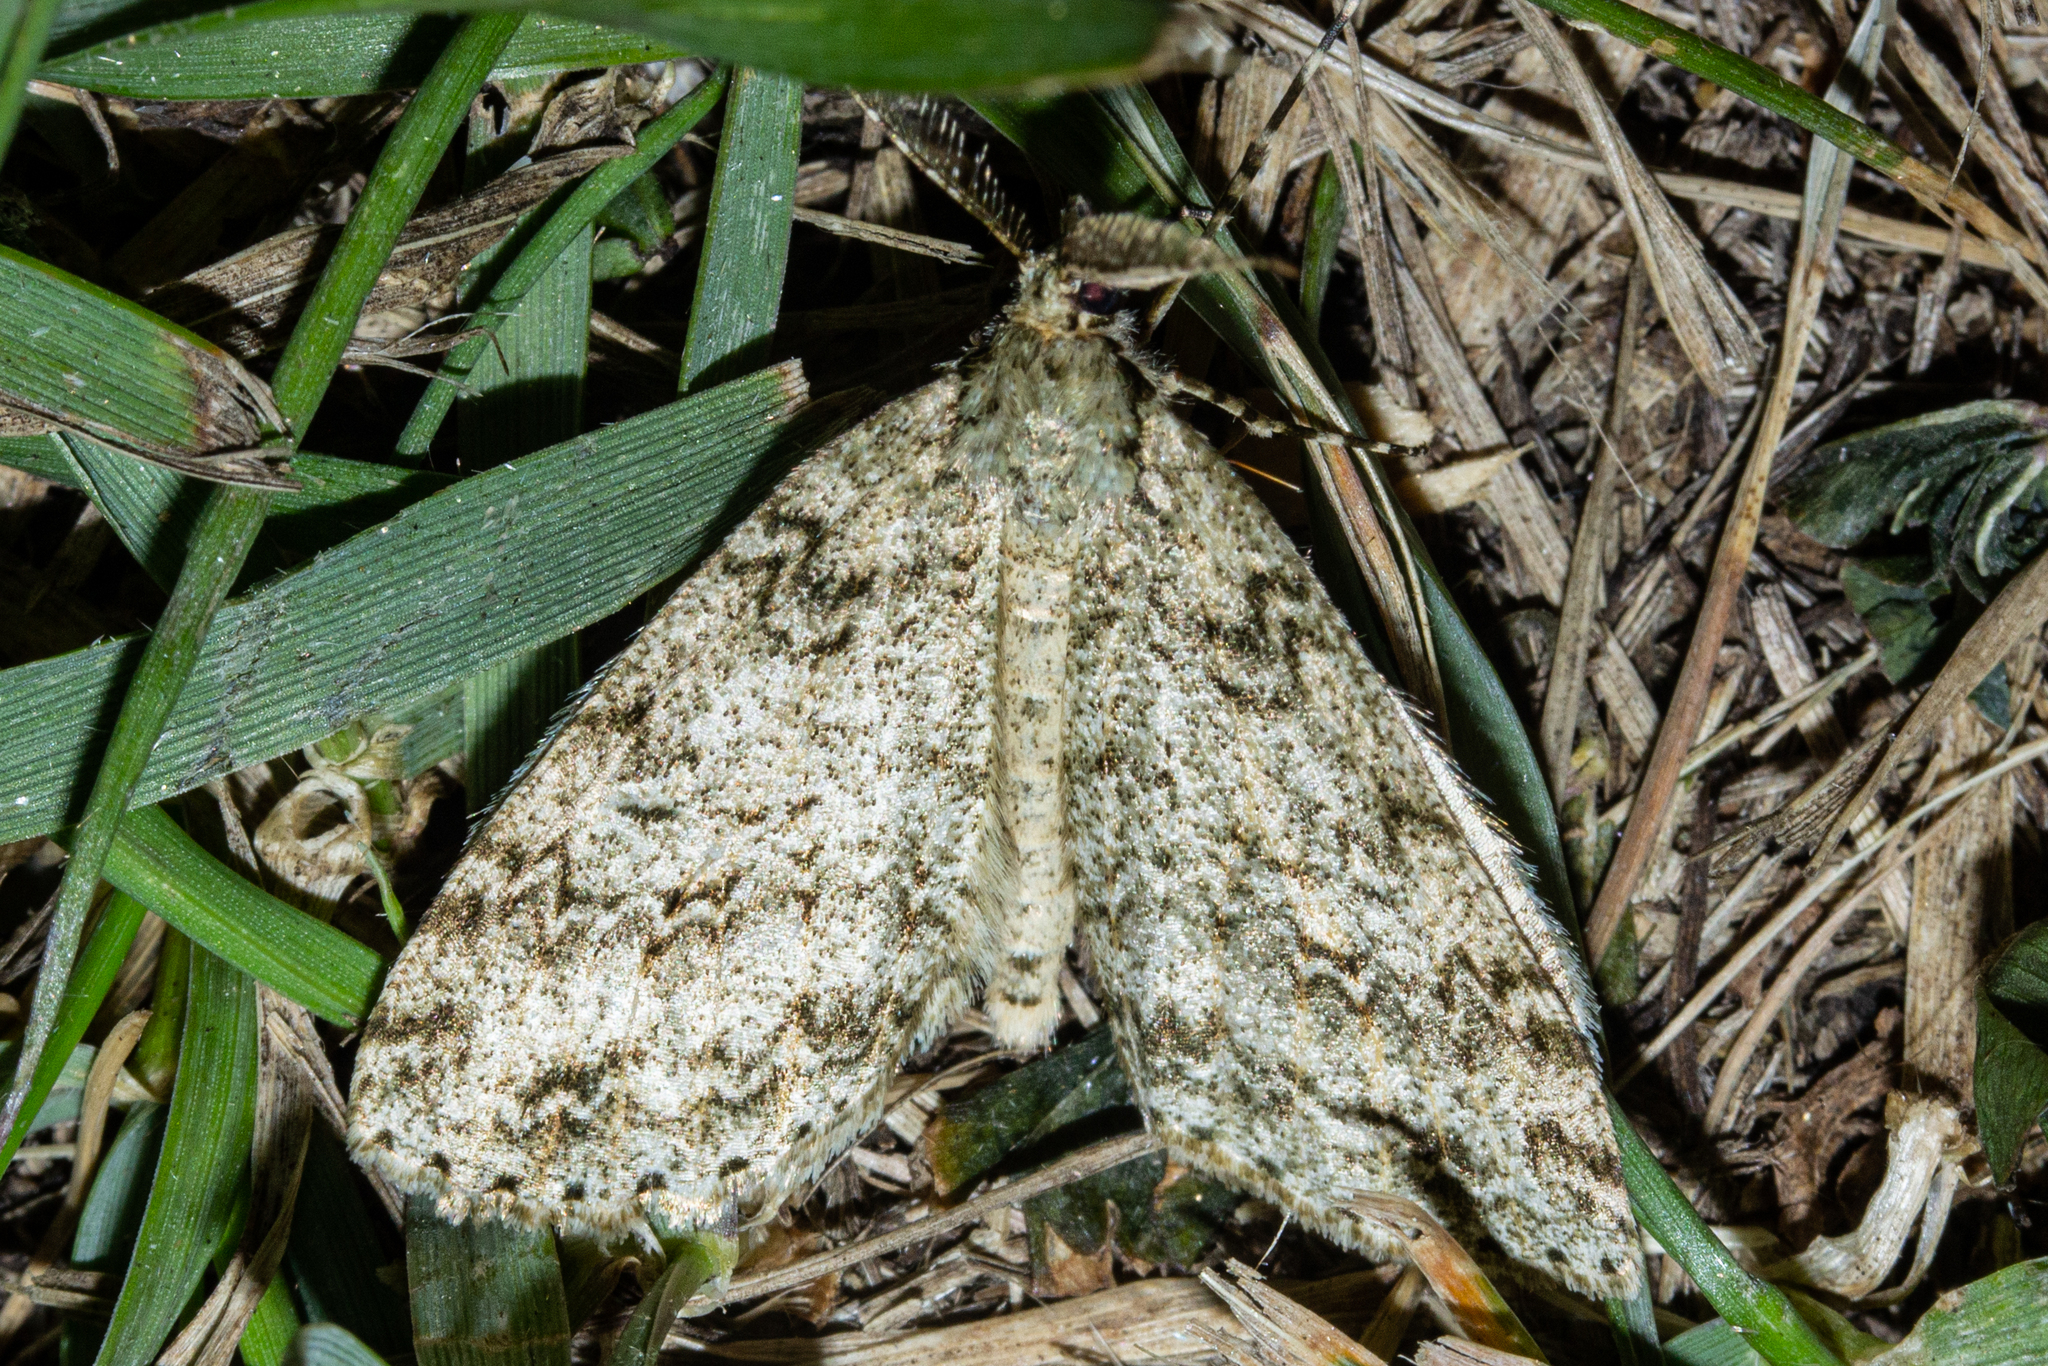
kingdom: Animalia
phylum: Arthropoda
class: Insecta
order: Lepidoptera
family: Geometridae
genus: Pseudocoremia
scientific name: Pseudocoremia rudisata
